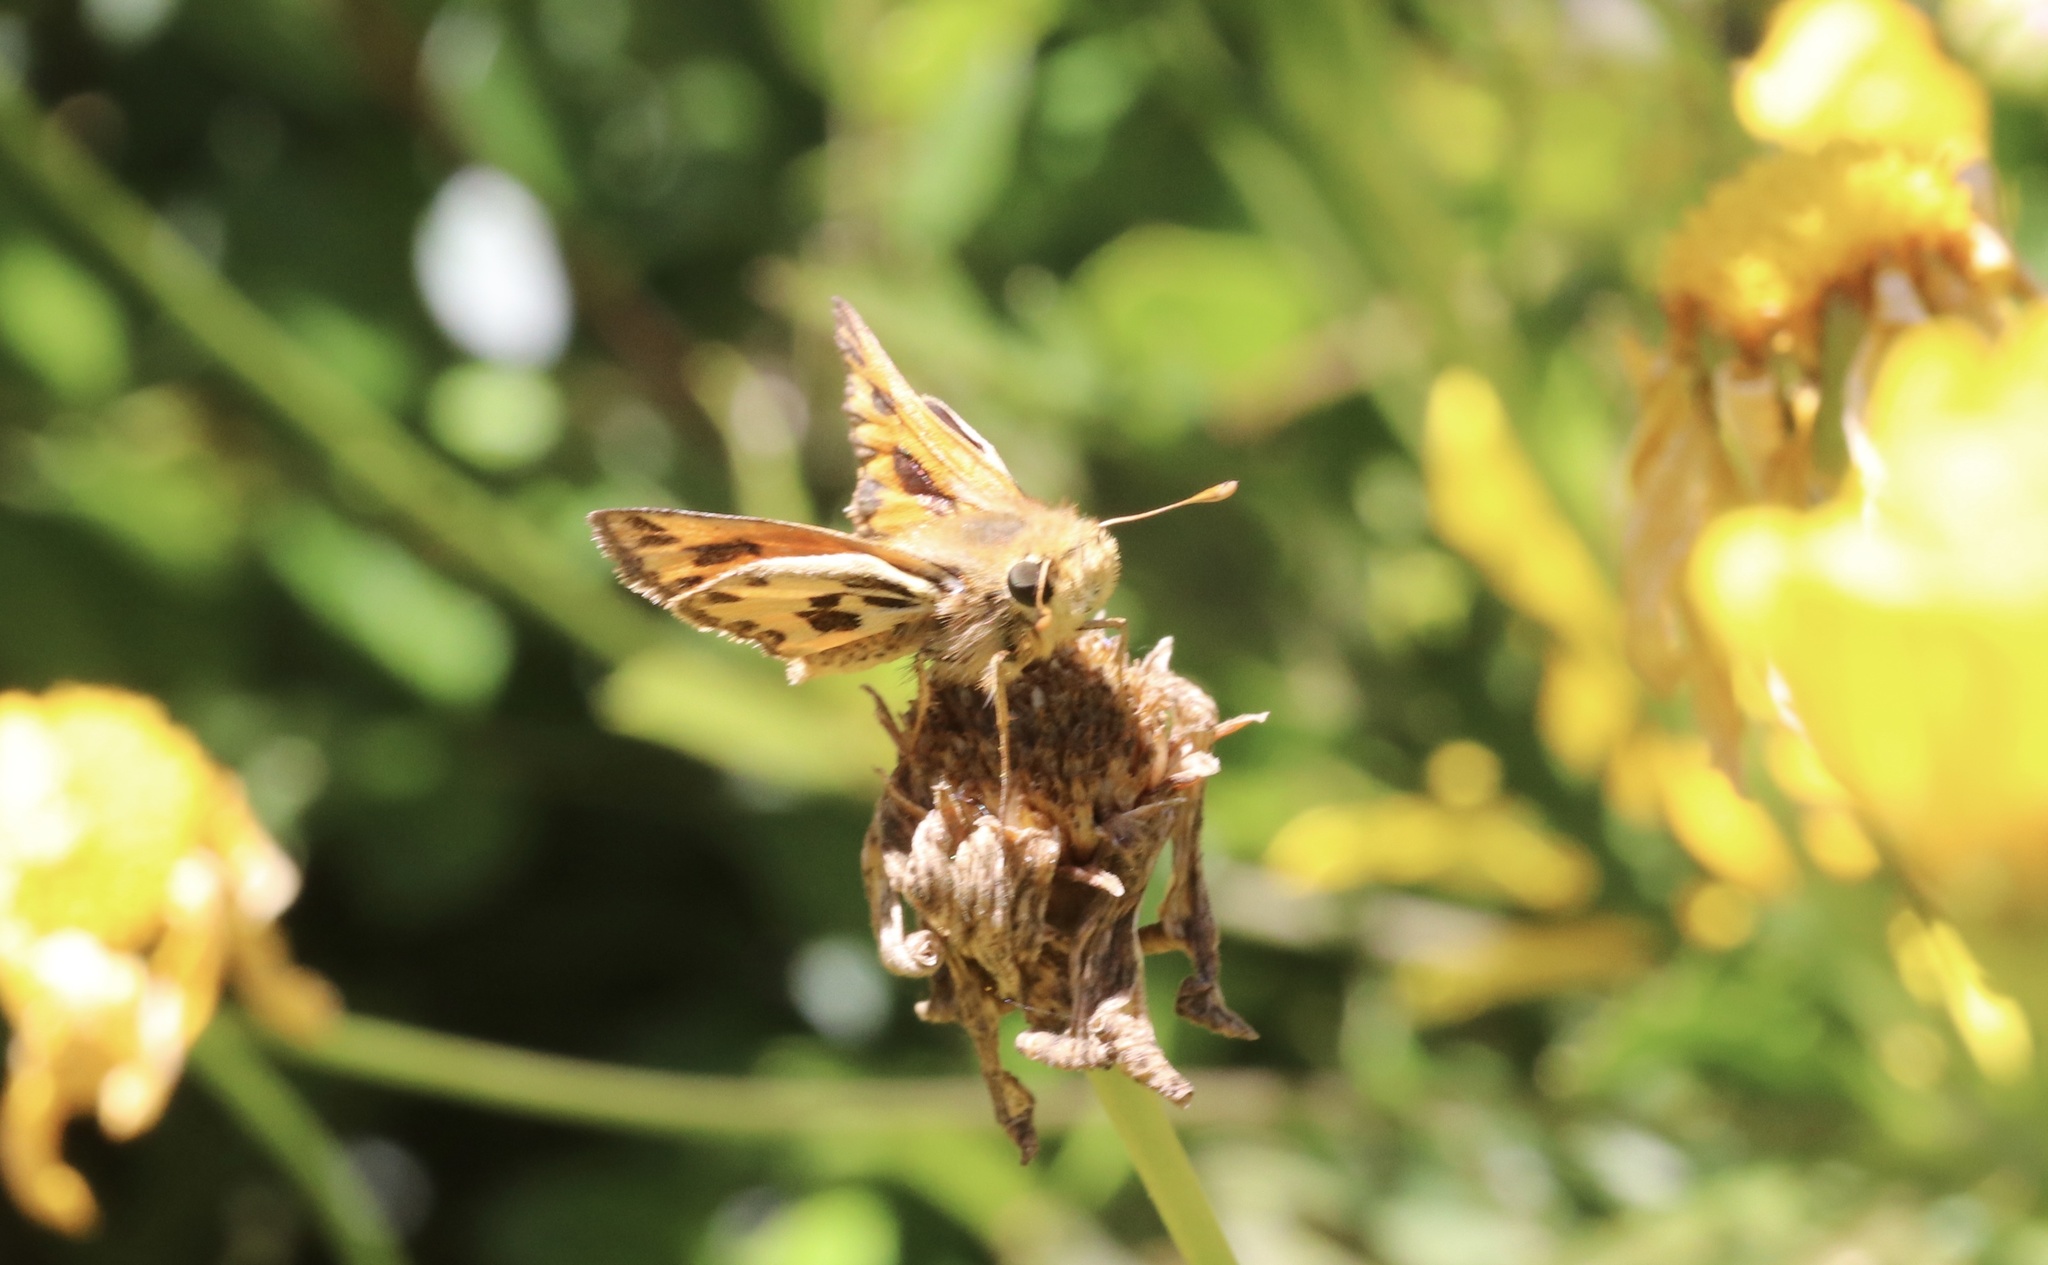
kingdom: Animalia
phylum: Arthropoda
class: Insecta
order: Lepidoptera
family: Hesperiidae
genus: Hylephila
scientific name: Hylephila fasciolata
